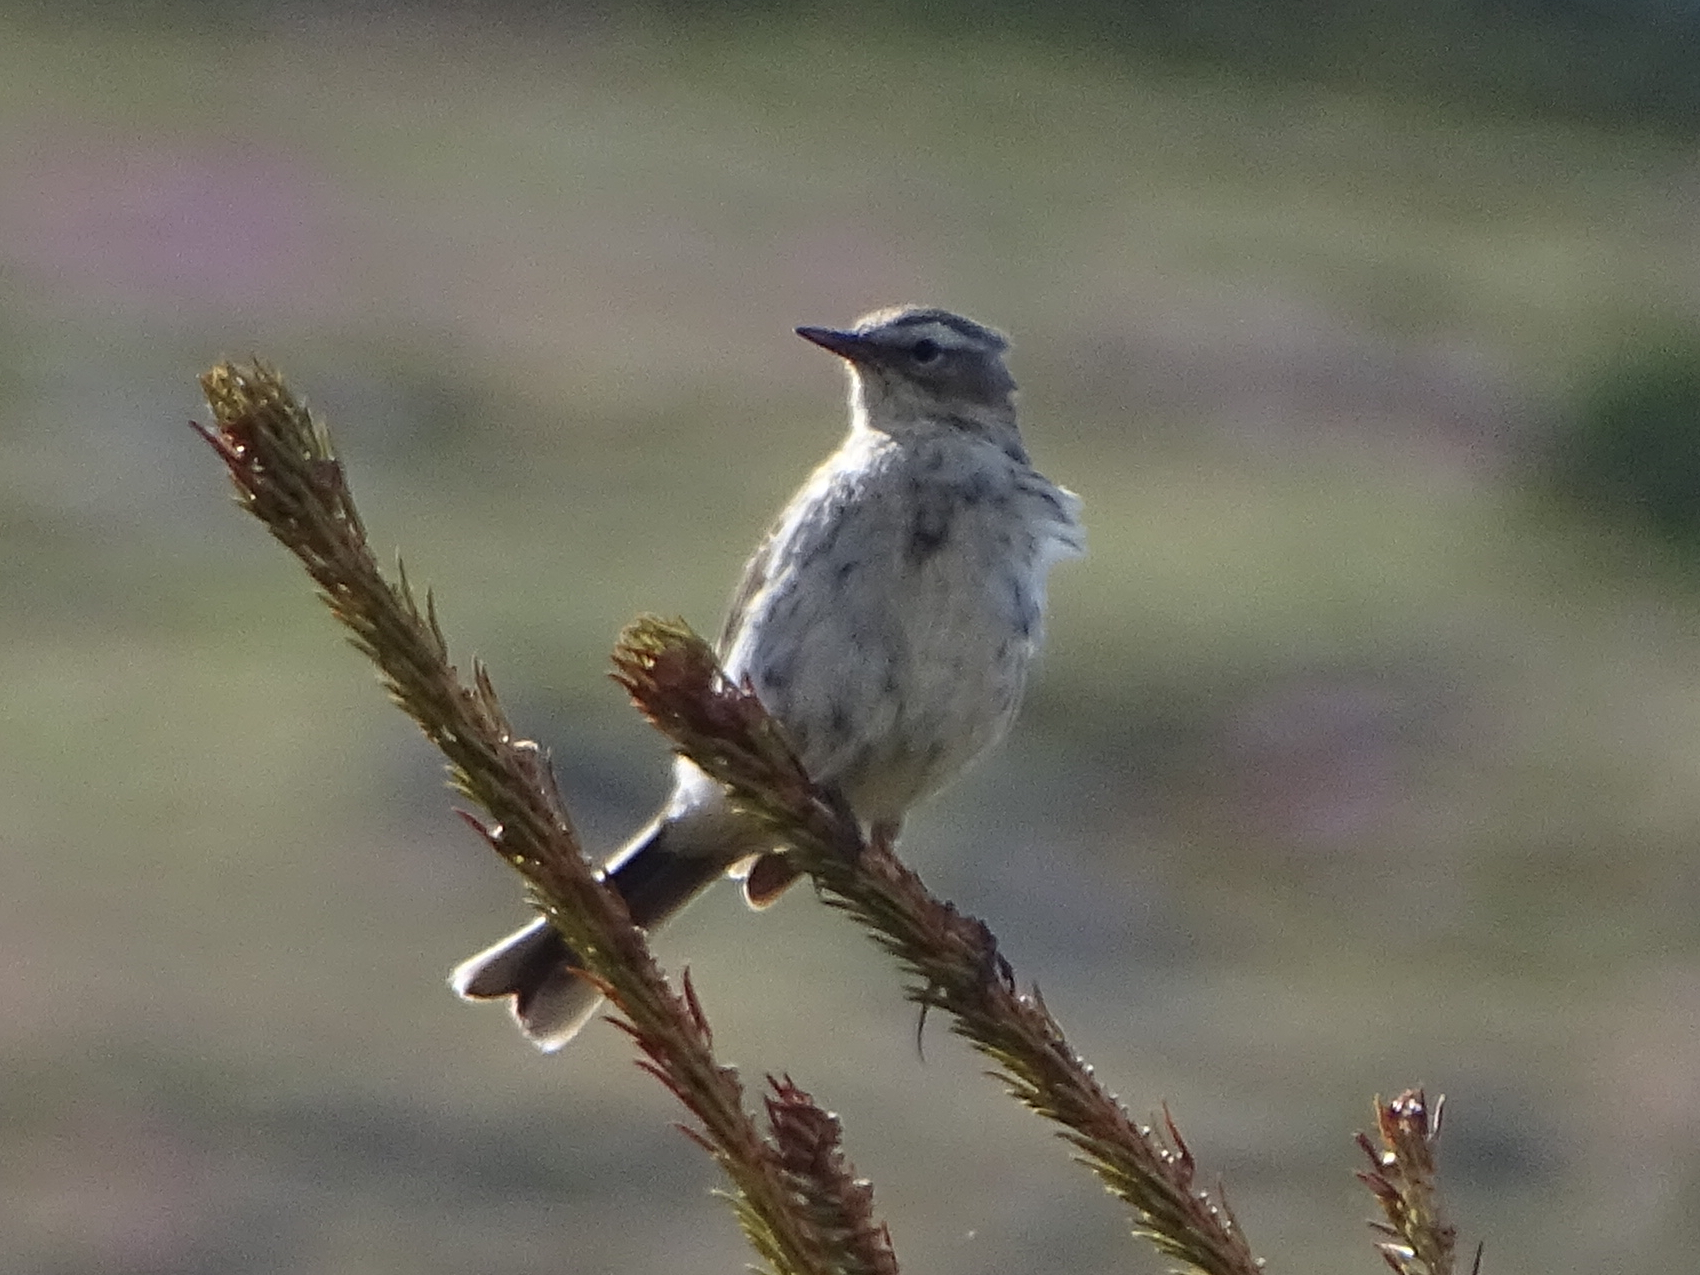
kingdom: Animalia
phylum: Chordata
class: Aves
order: Passeriformes
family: Motacillidae
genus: Anthus
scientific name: Anthus spinoletta
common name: Water pipit
